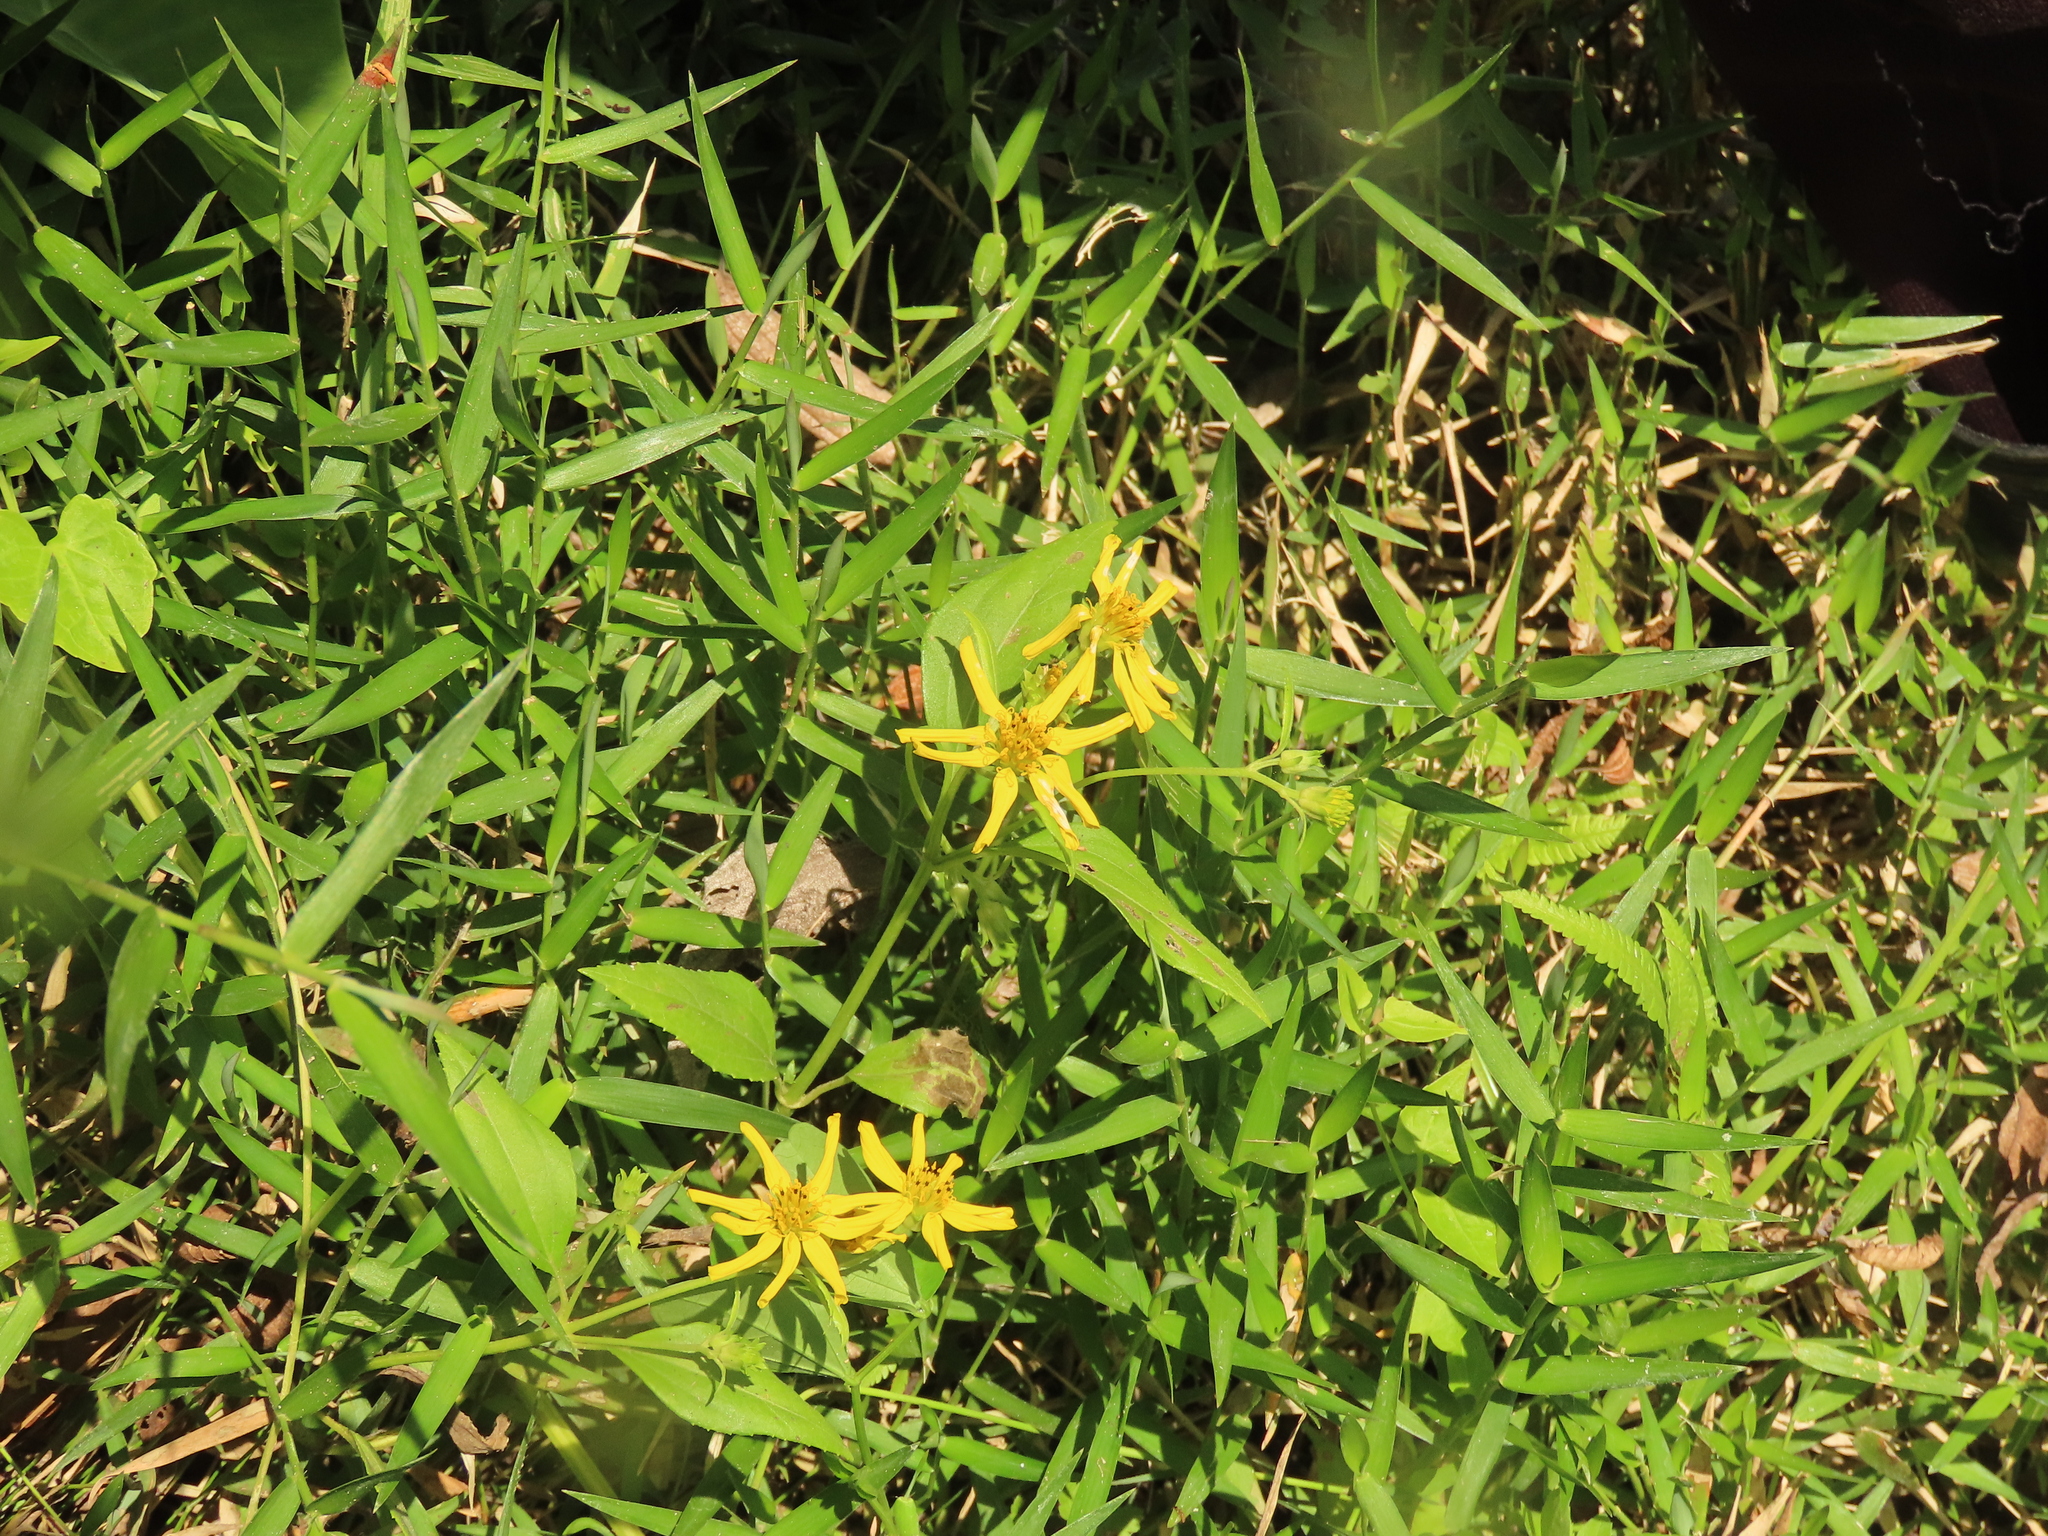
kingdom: Plantae
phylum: Tracheophyta
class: Magnoliopsida
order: Asterales
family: Asteraceae
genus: Wollastonia
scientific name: Wollastonia biflora
